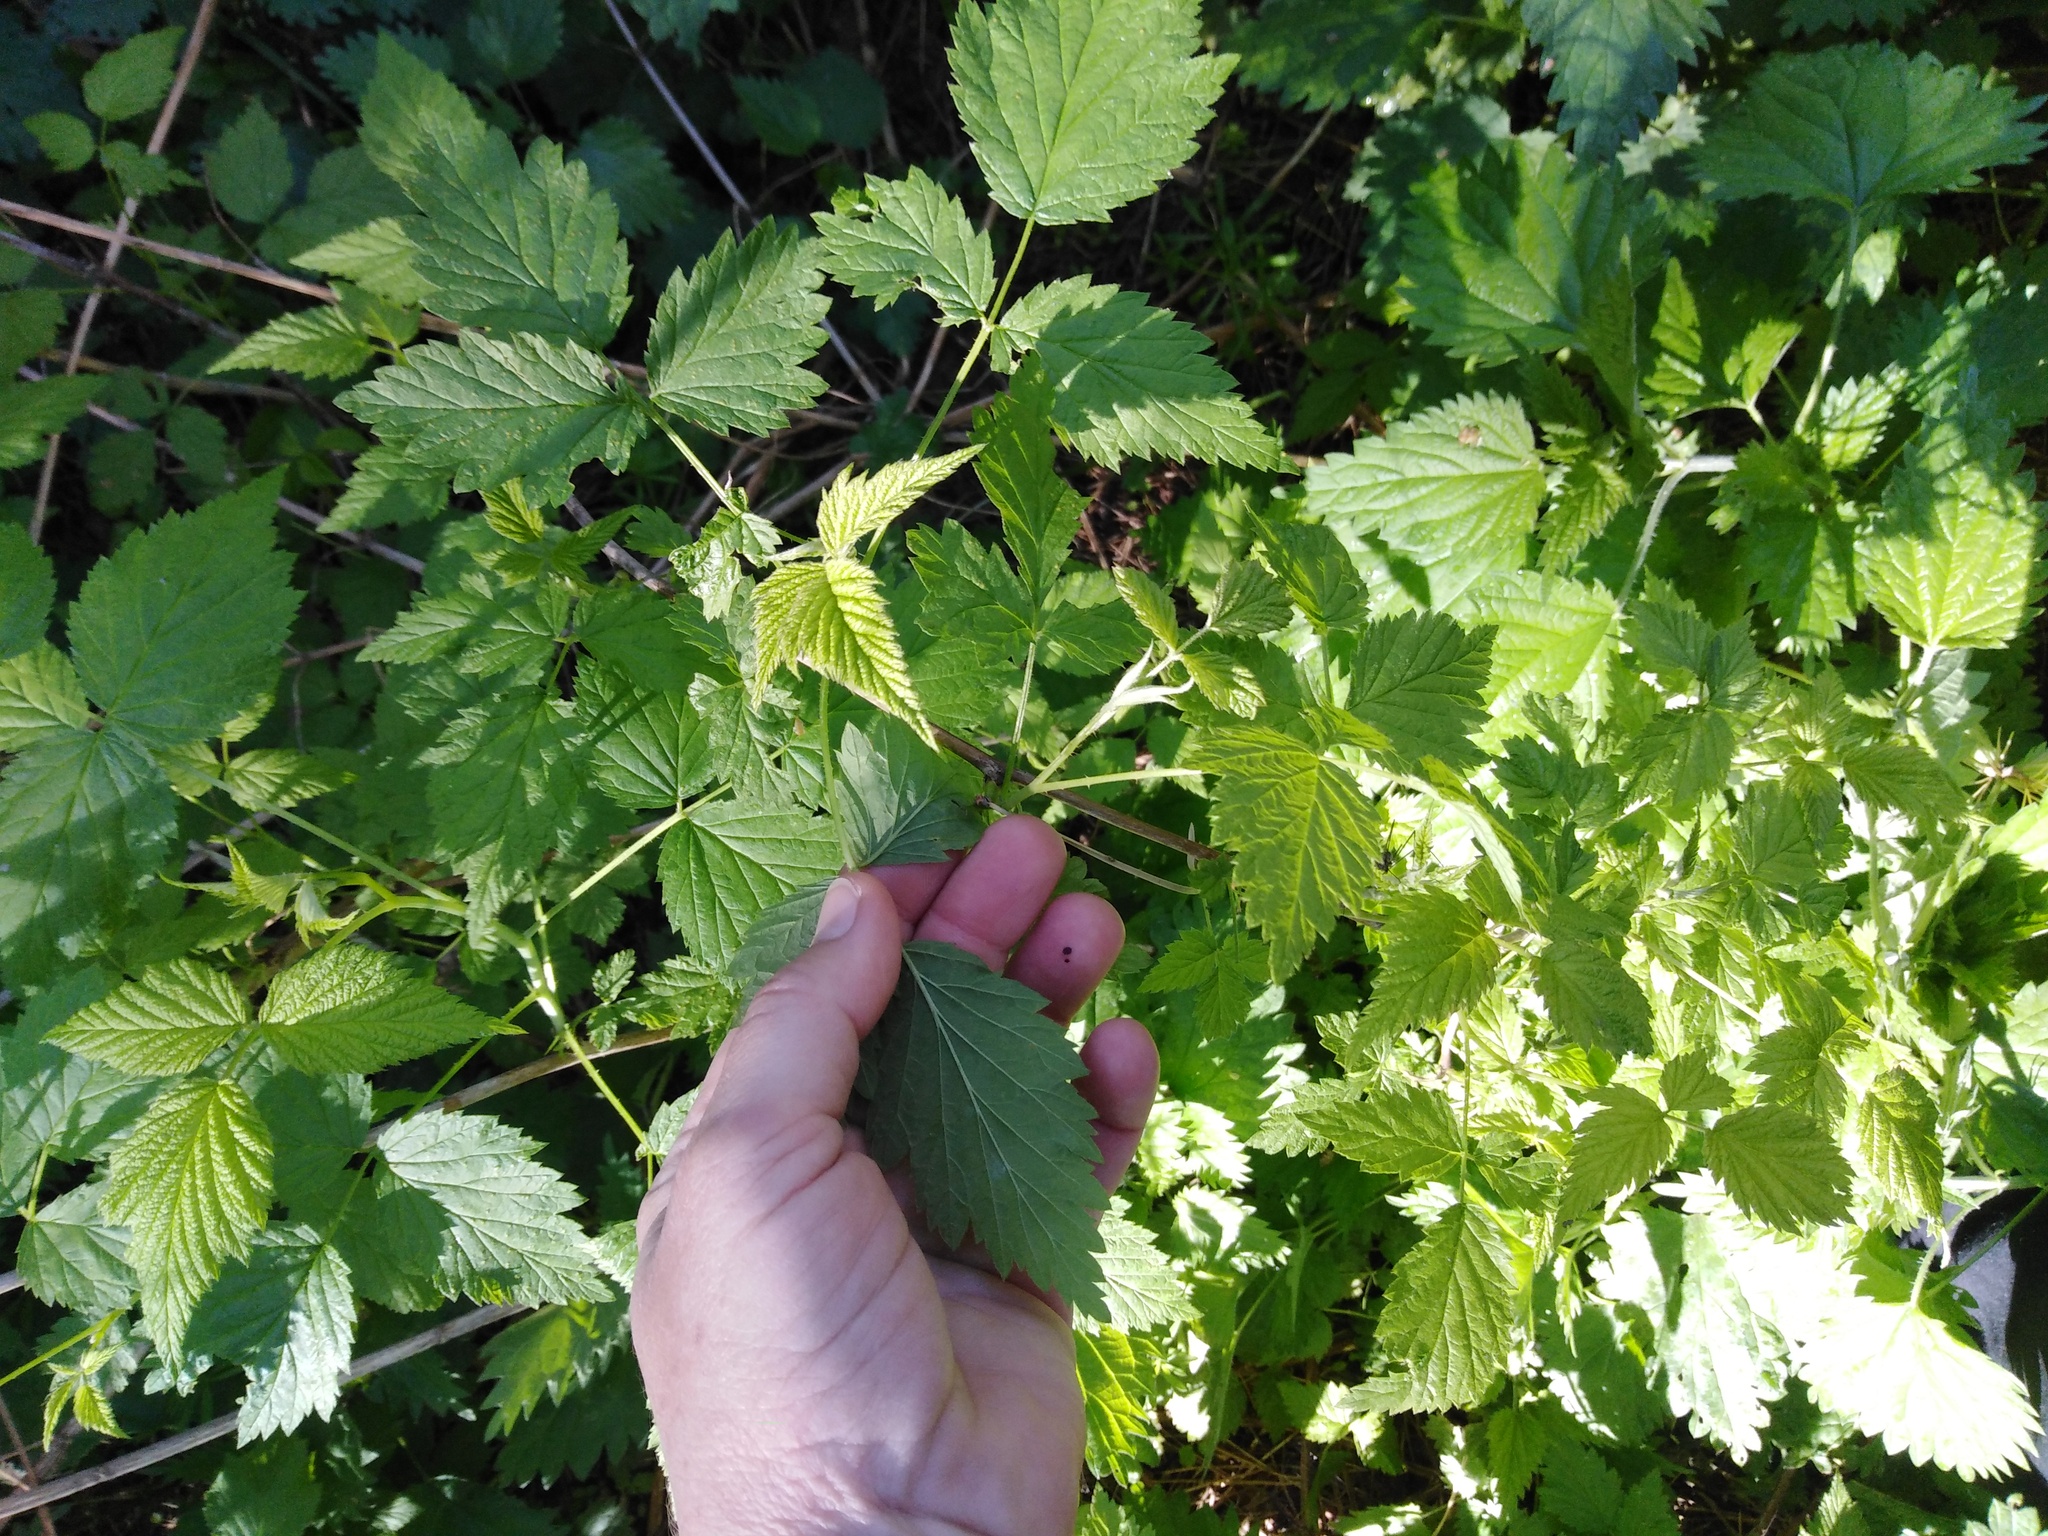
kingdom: Plantae
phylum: Tracheophyta
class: Magnoliopsida
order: Rosales
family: Rosaceae
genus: Rubus
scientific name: Rubus caesius
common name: Dewberry
